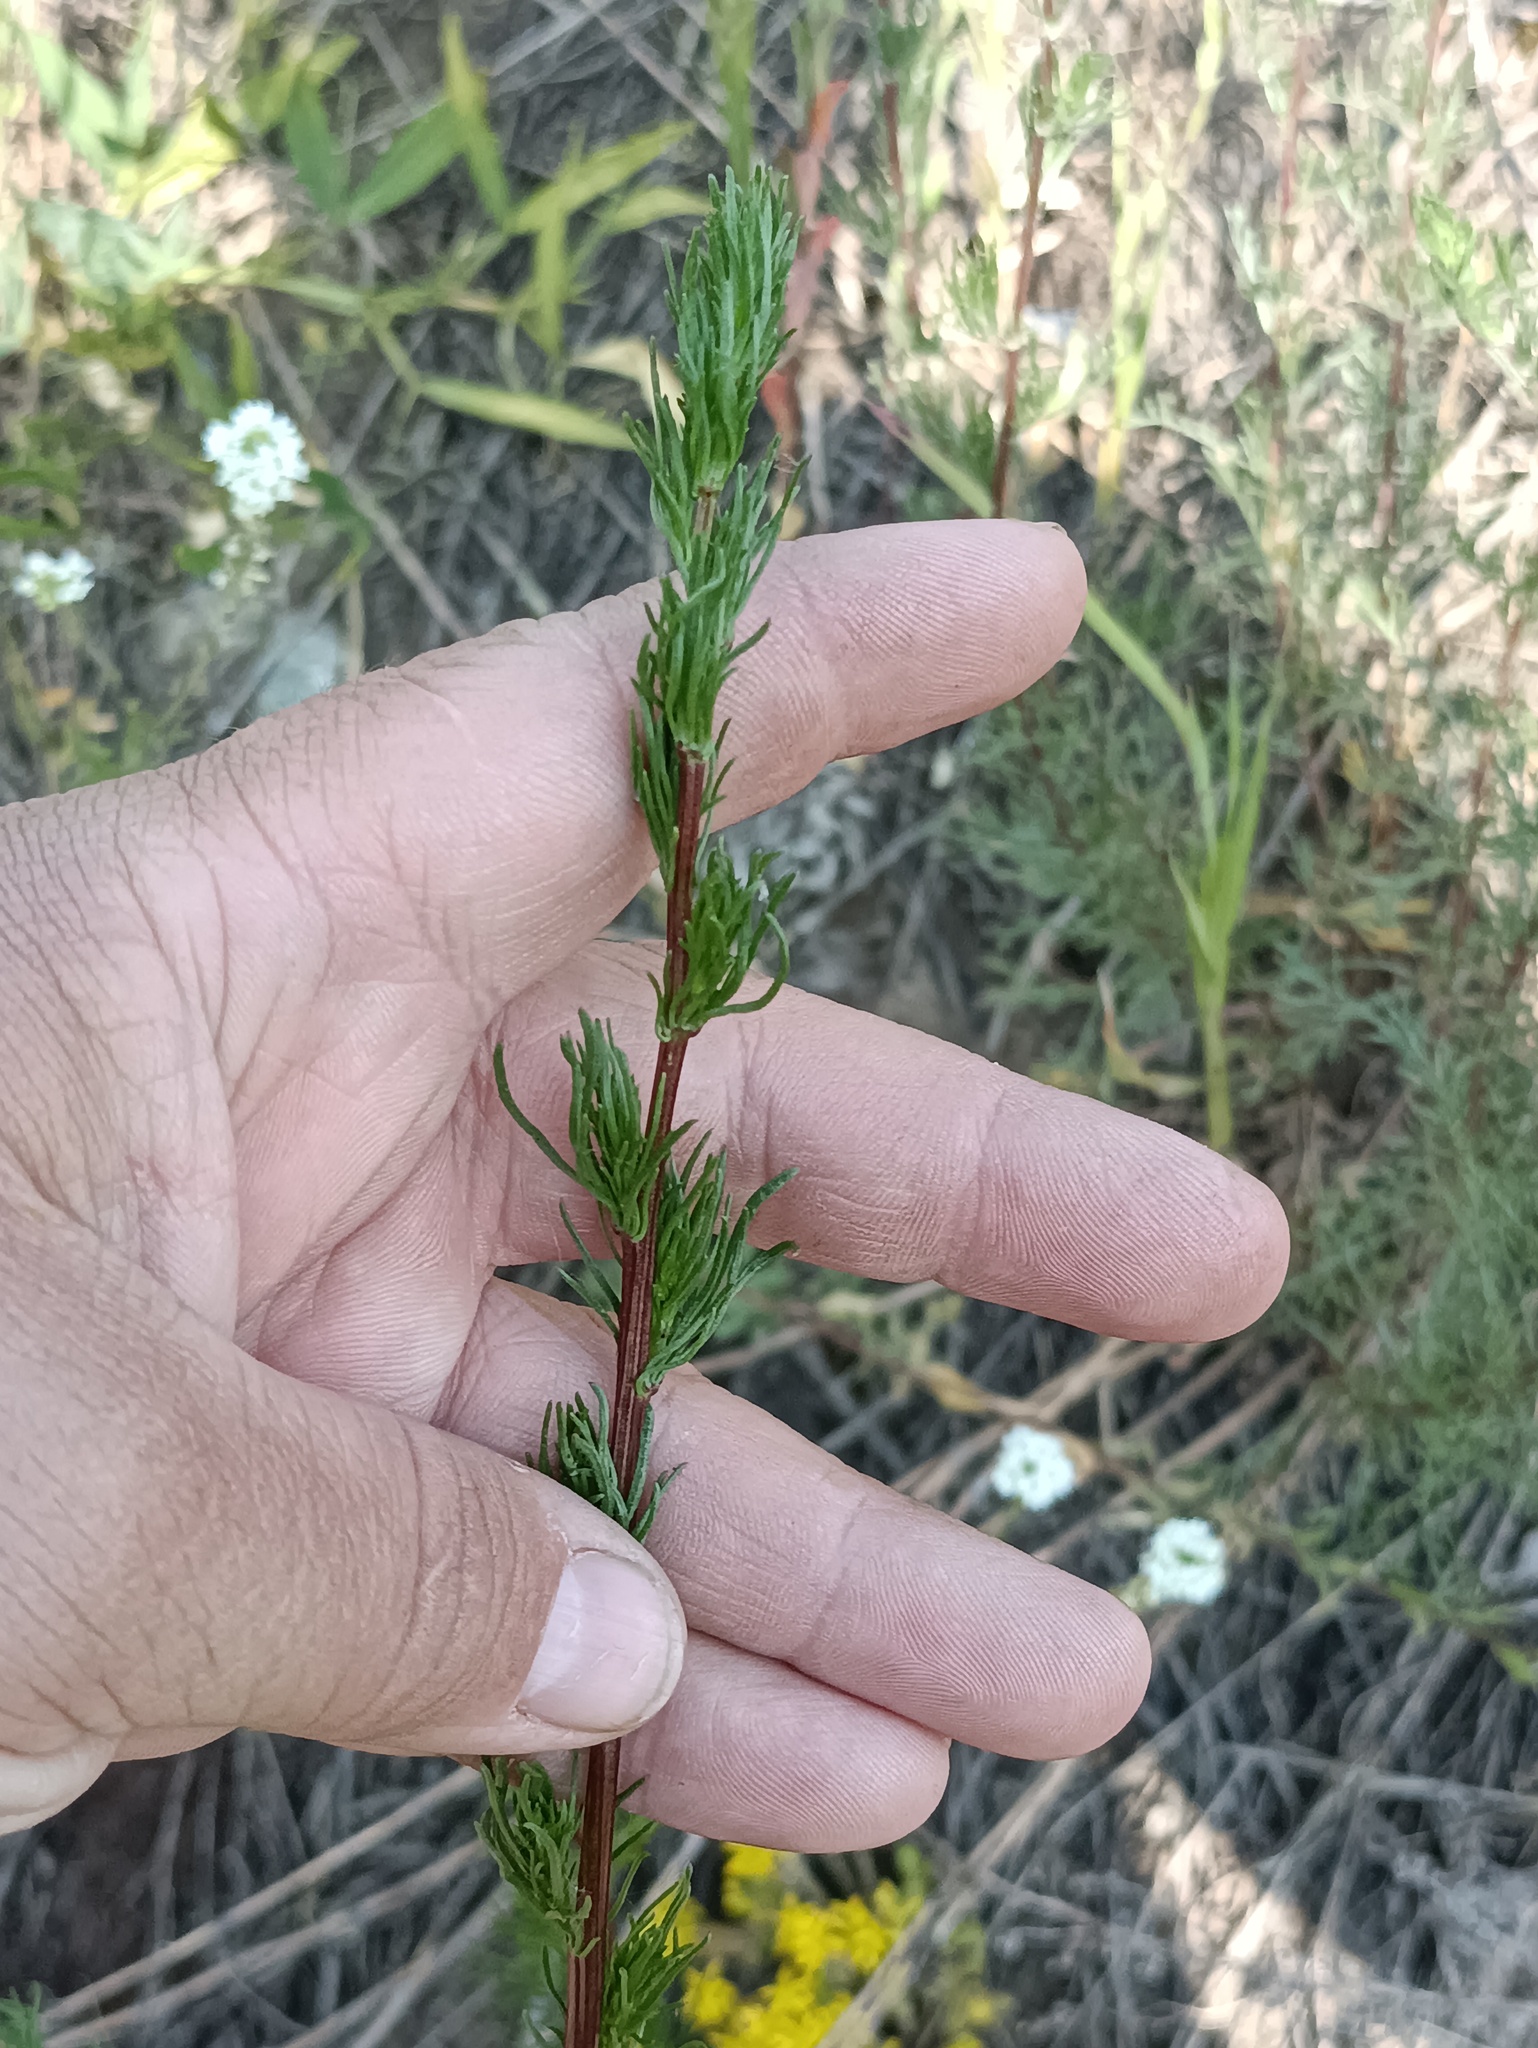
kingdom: Plantae
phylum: Tracheophyta
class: Magnoliopsida
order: Asterales
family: Asteraceae
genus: Artemisia
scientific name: Artemisia campestris
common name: Field wormwood
